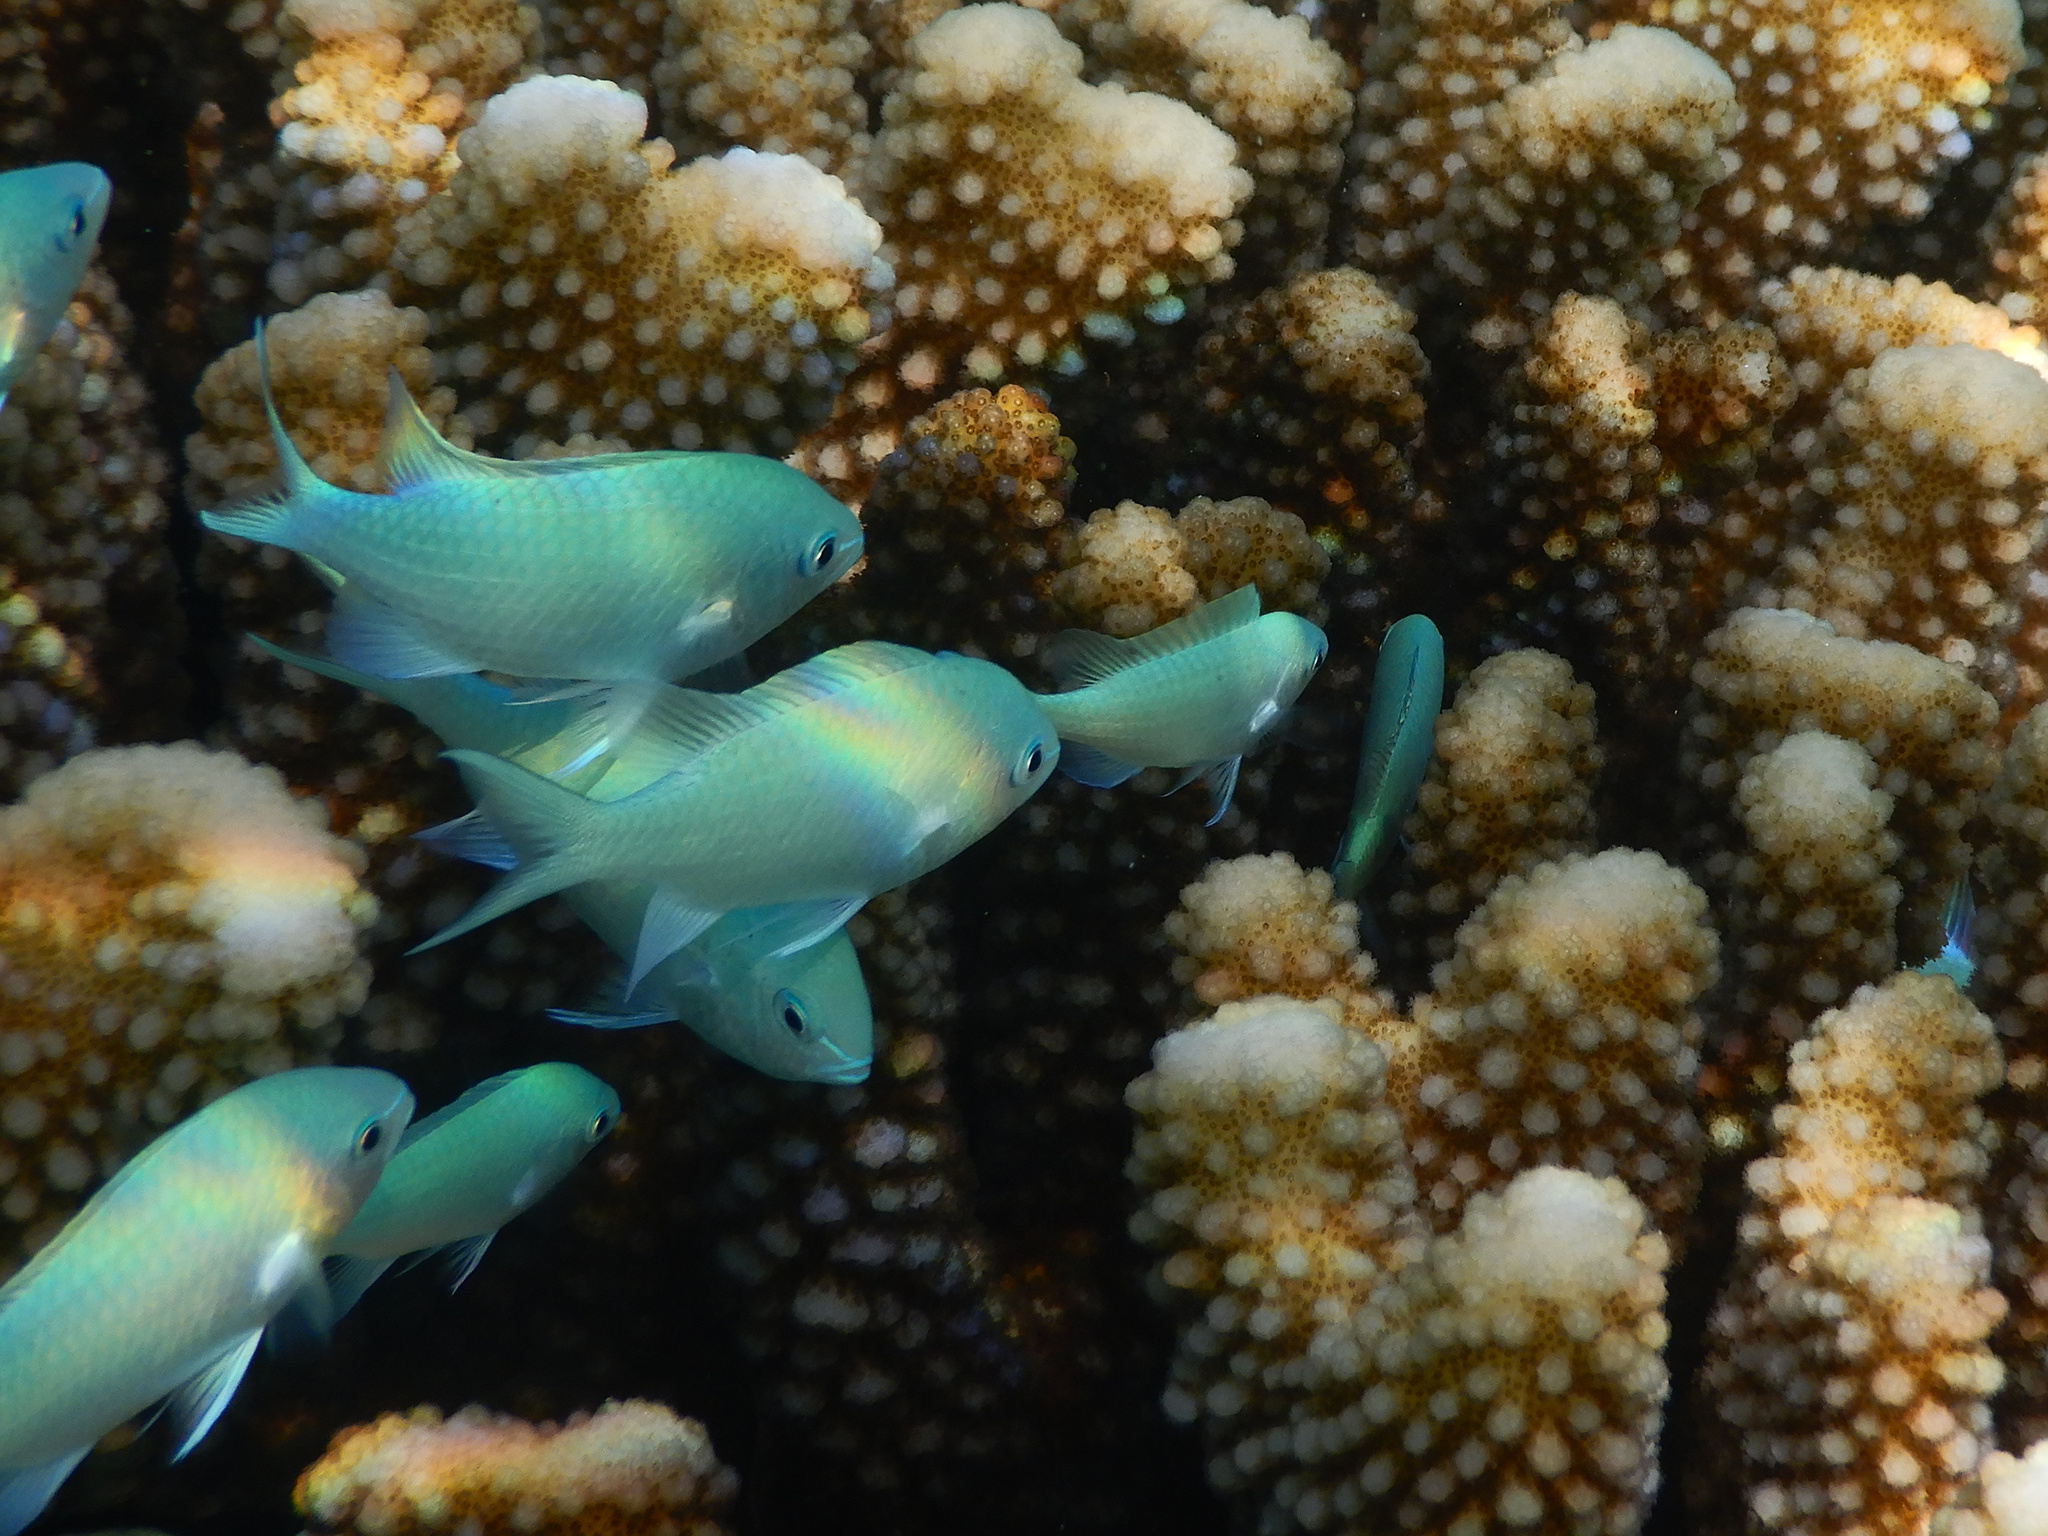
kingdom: Animalia
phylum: Chordata
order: Perciformes
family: Pomacentridae
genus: Chromis
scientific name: Chromis viridis
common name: Blue-green chromis
